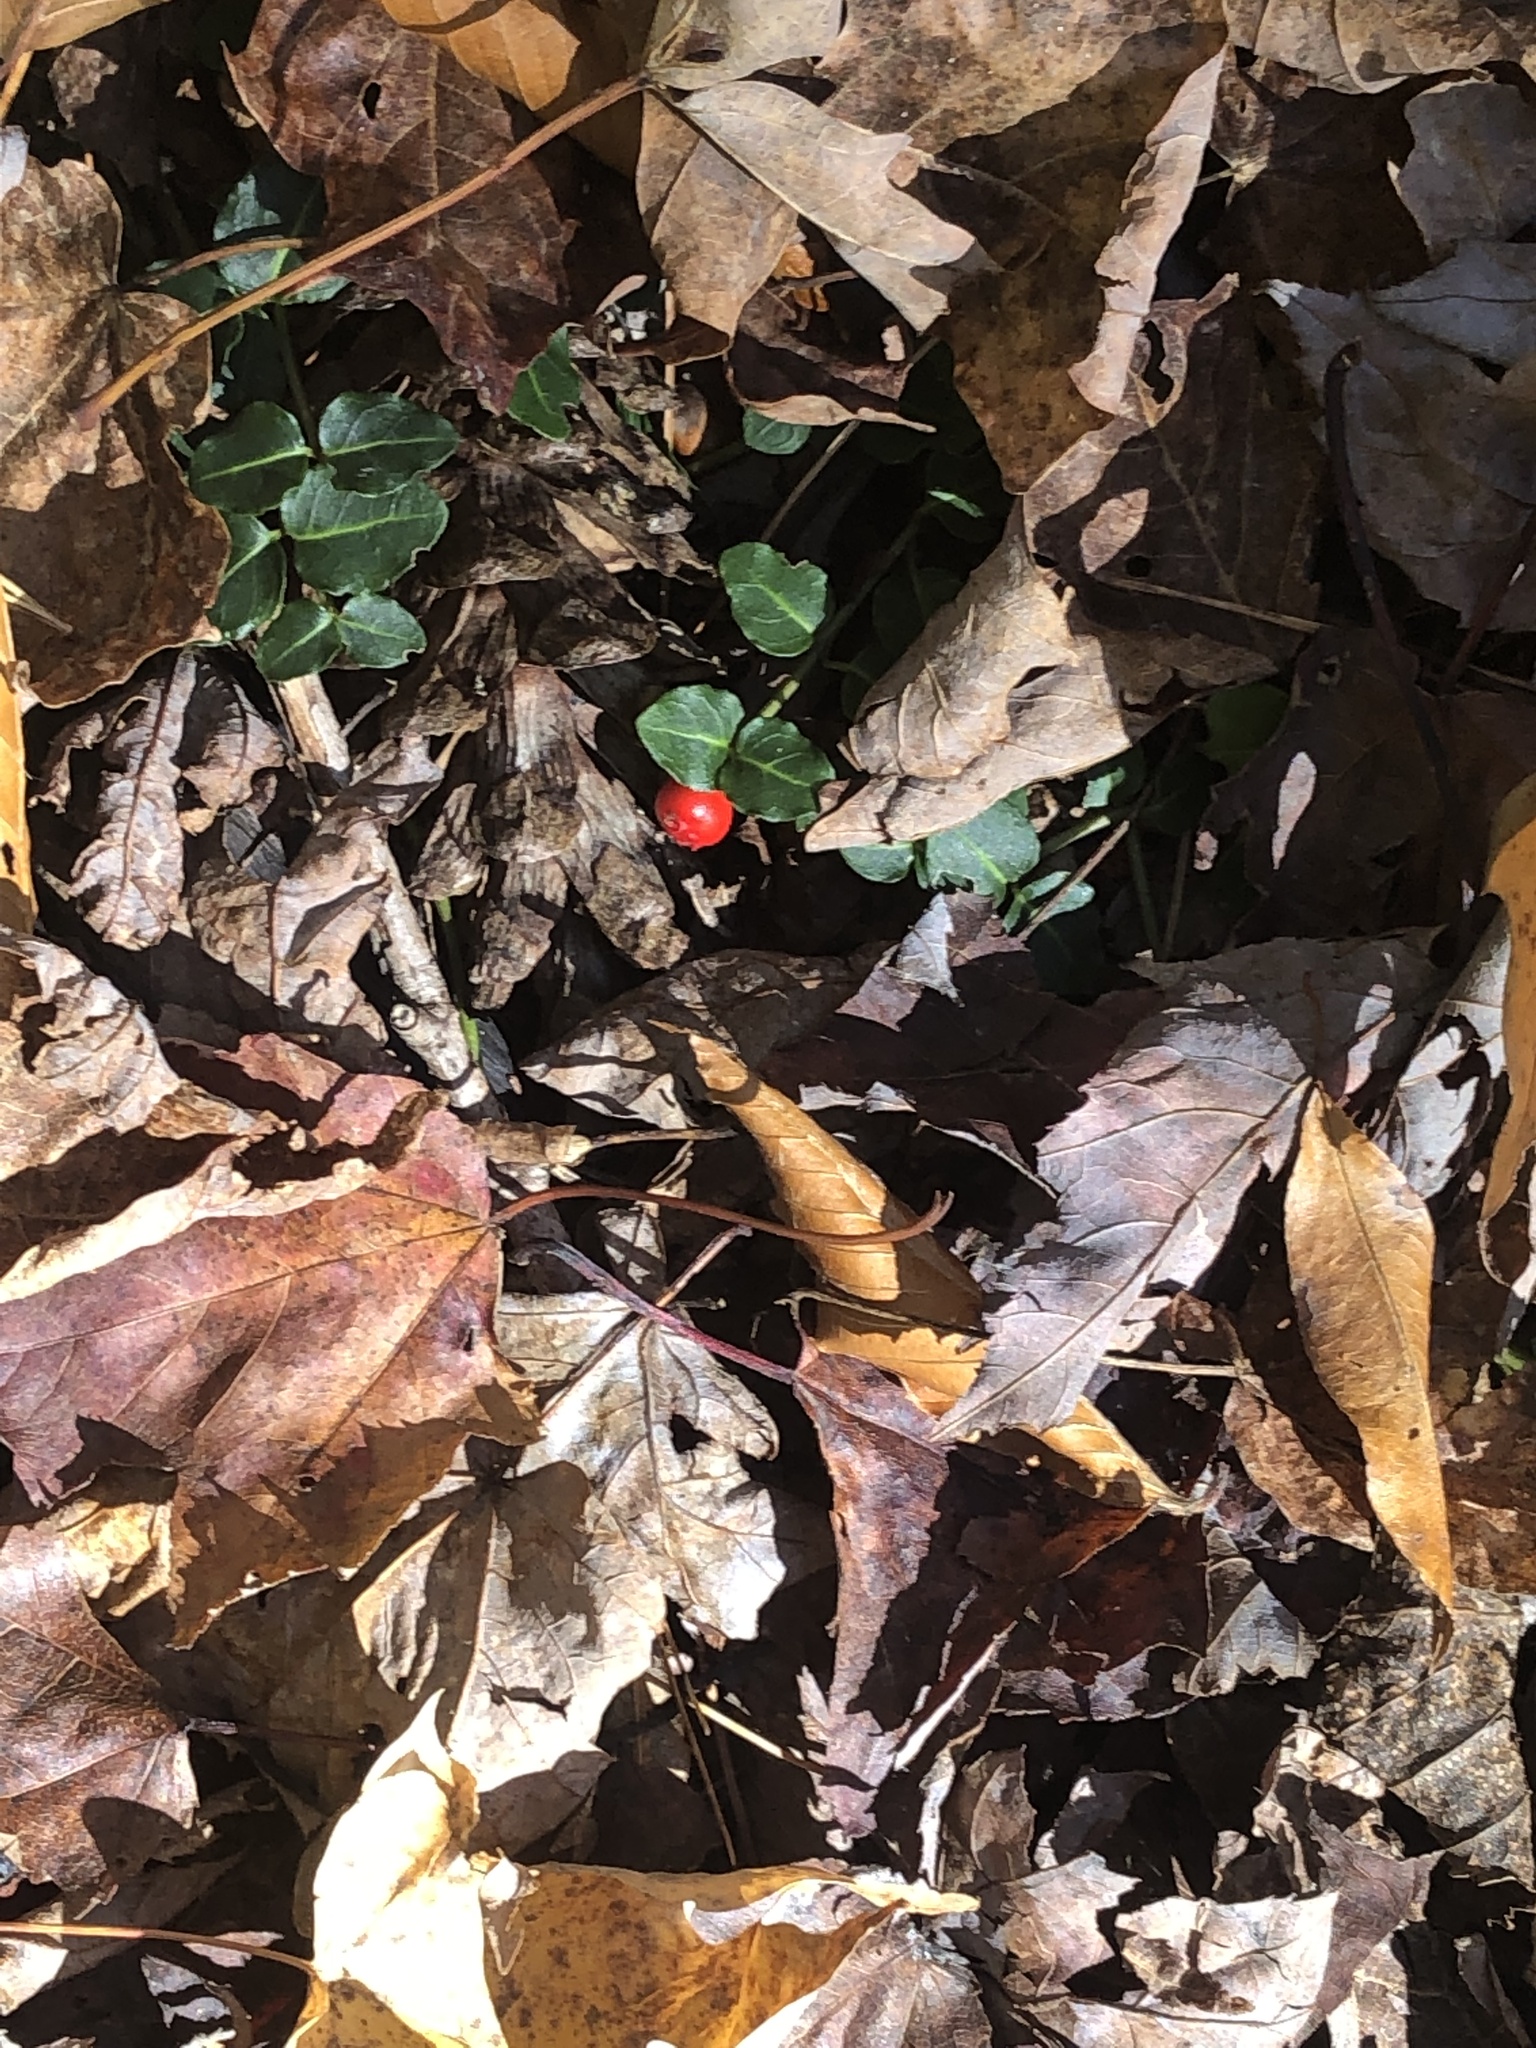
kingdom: Plantae
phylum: Tracheophyta
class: Magnoliopsida
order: Gentianales
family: Rubiaceae
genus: Mitchella
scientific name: Mitchella repens
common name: Partridge-berry
